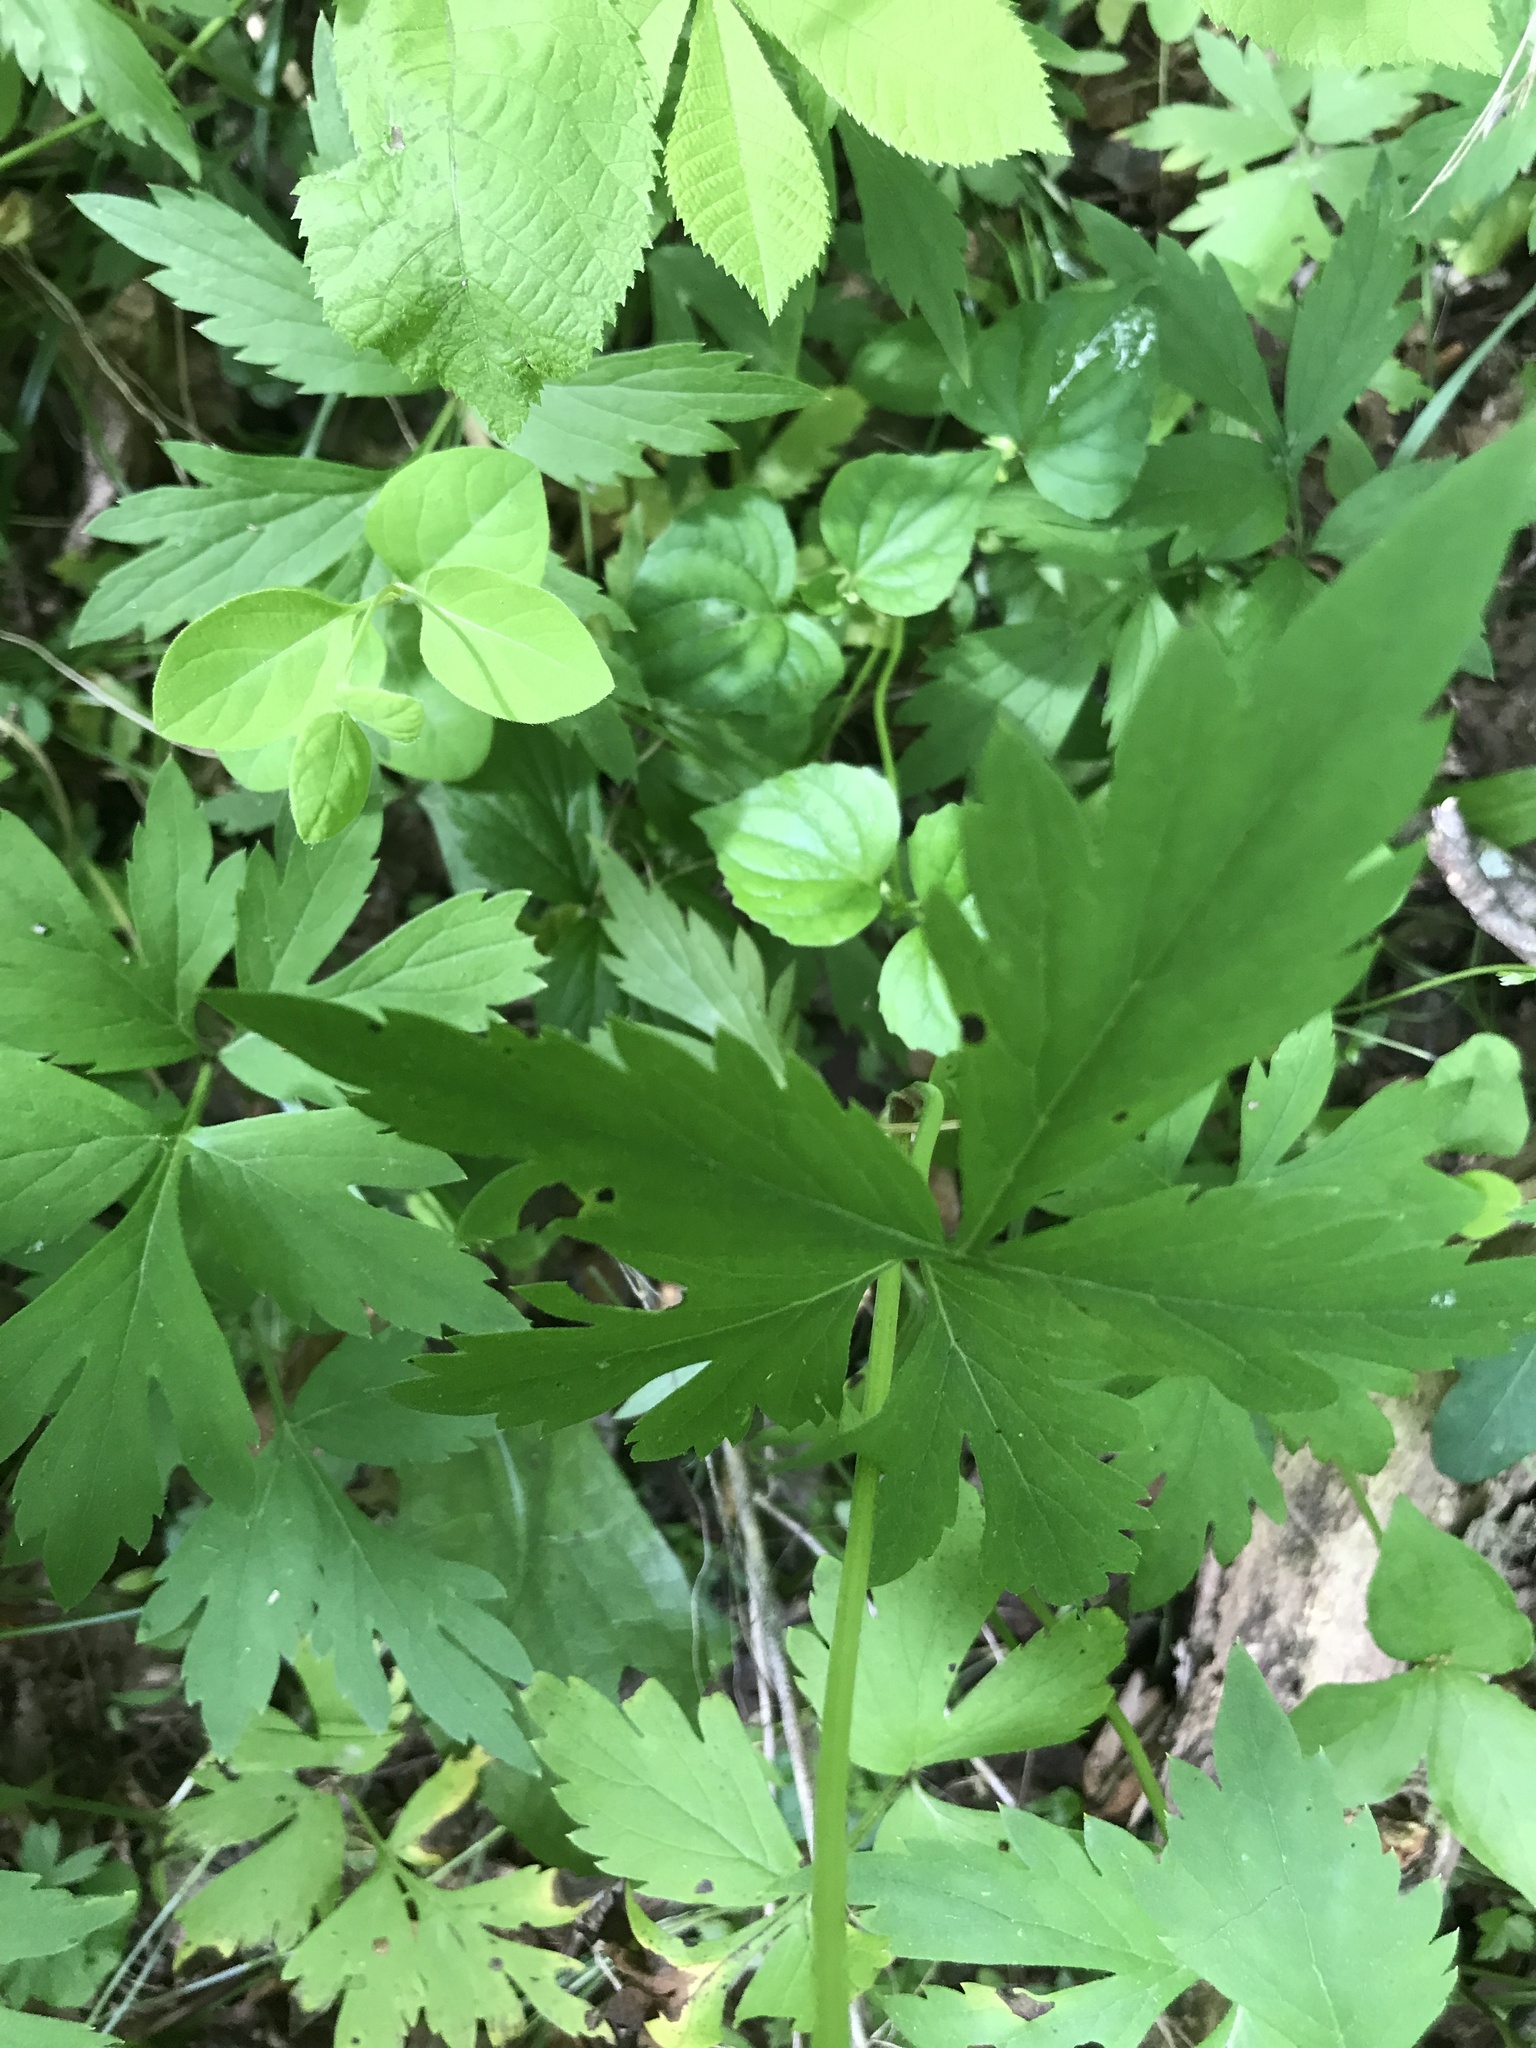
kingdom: Plantae
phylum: Tracheophyta
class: Magnoliopsida
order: Boraginales
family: Hydrophyllaceae
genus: Hydrophyllum
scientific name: Hydrophyllum virginianum
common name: Virginia waterleaf
